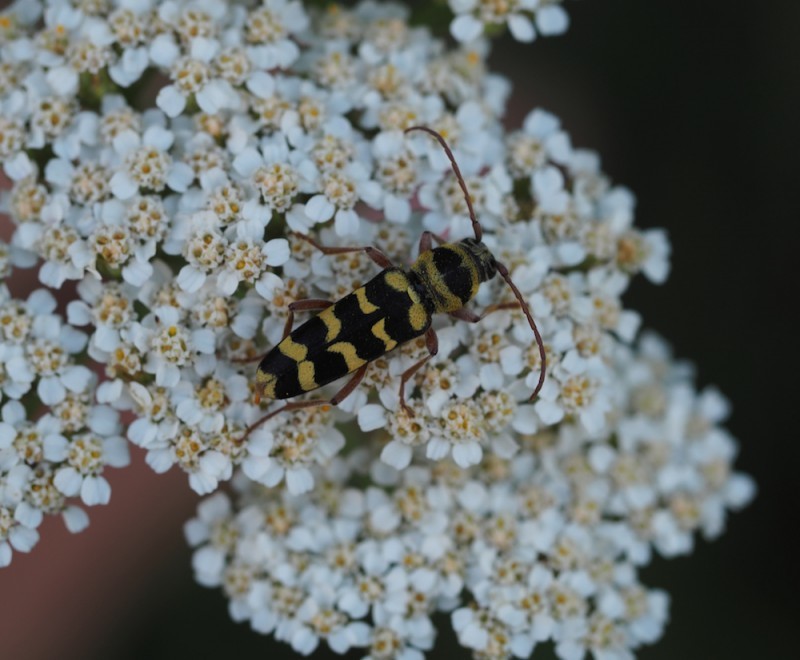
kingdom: Animalia
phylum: Arthropoda
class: Insecta
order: Coleoptera
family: Cerambycidae
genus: Plagionotus
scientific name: Plagionotus floralis
